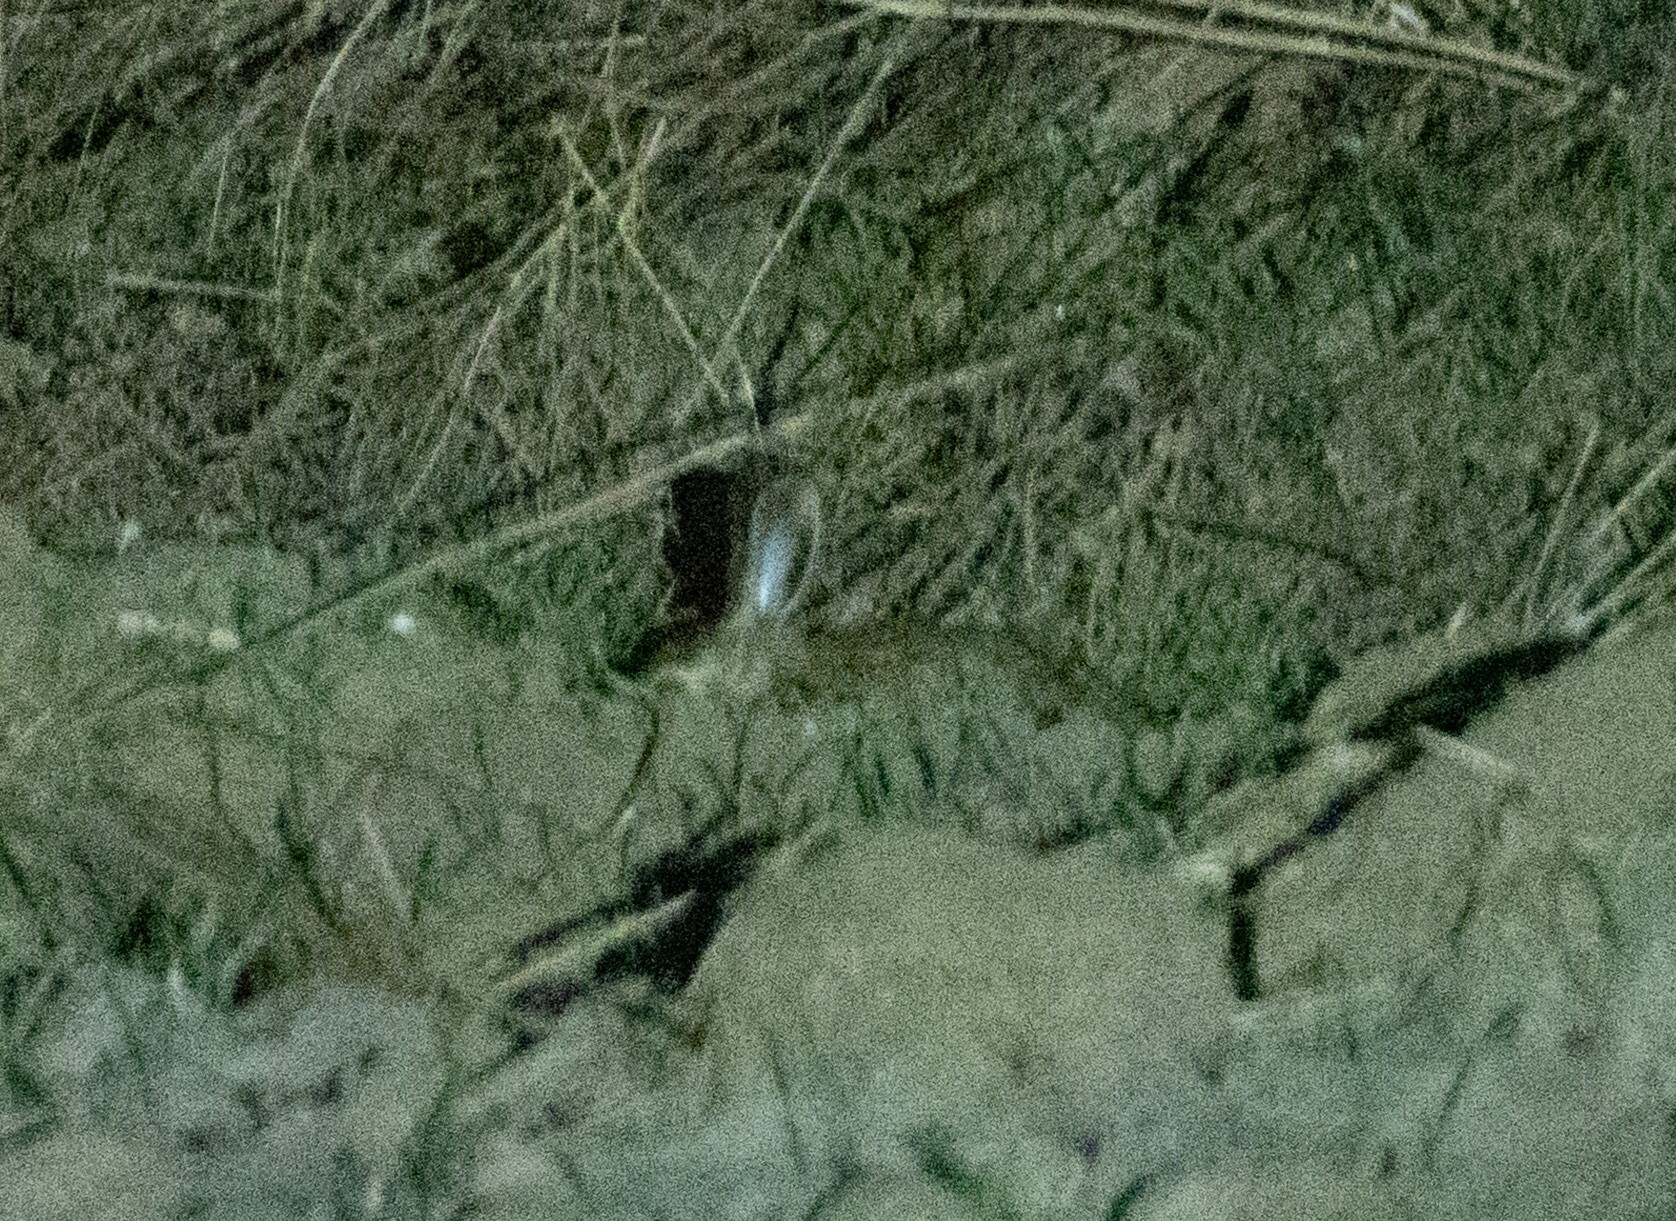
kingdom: Animalia
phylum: Chordata
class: Mammalia
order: Lagomorpha
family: Leporidae
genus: Lepus
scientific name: Lepus europaeus
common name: European hare
